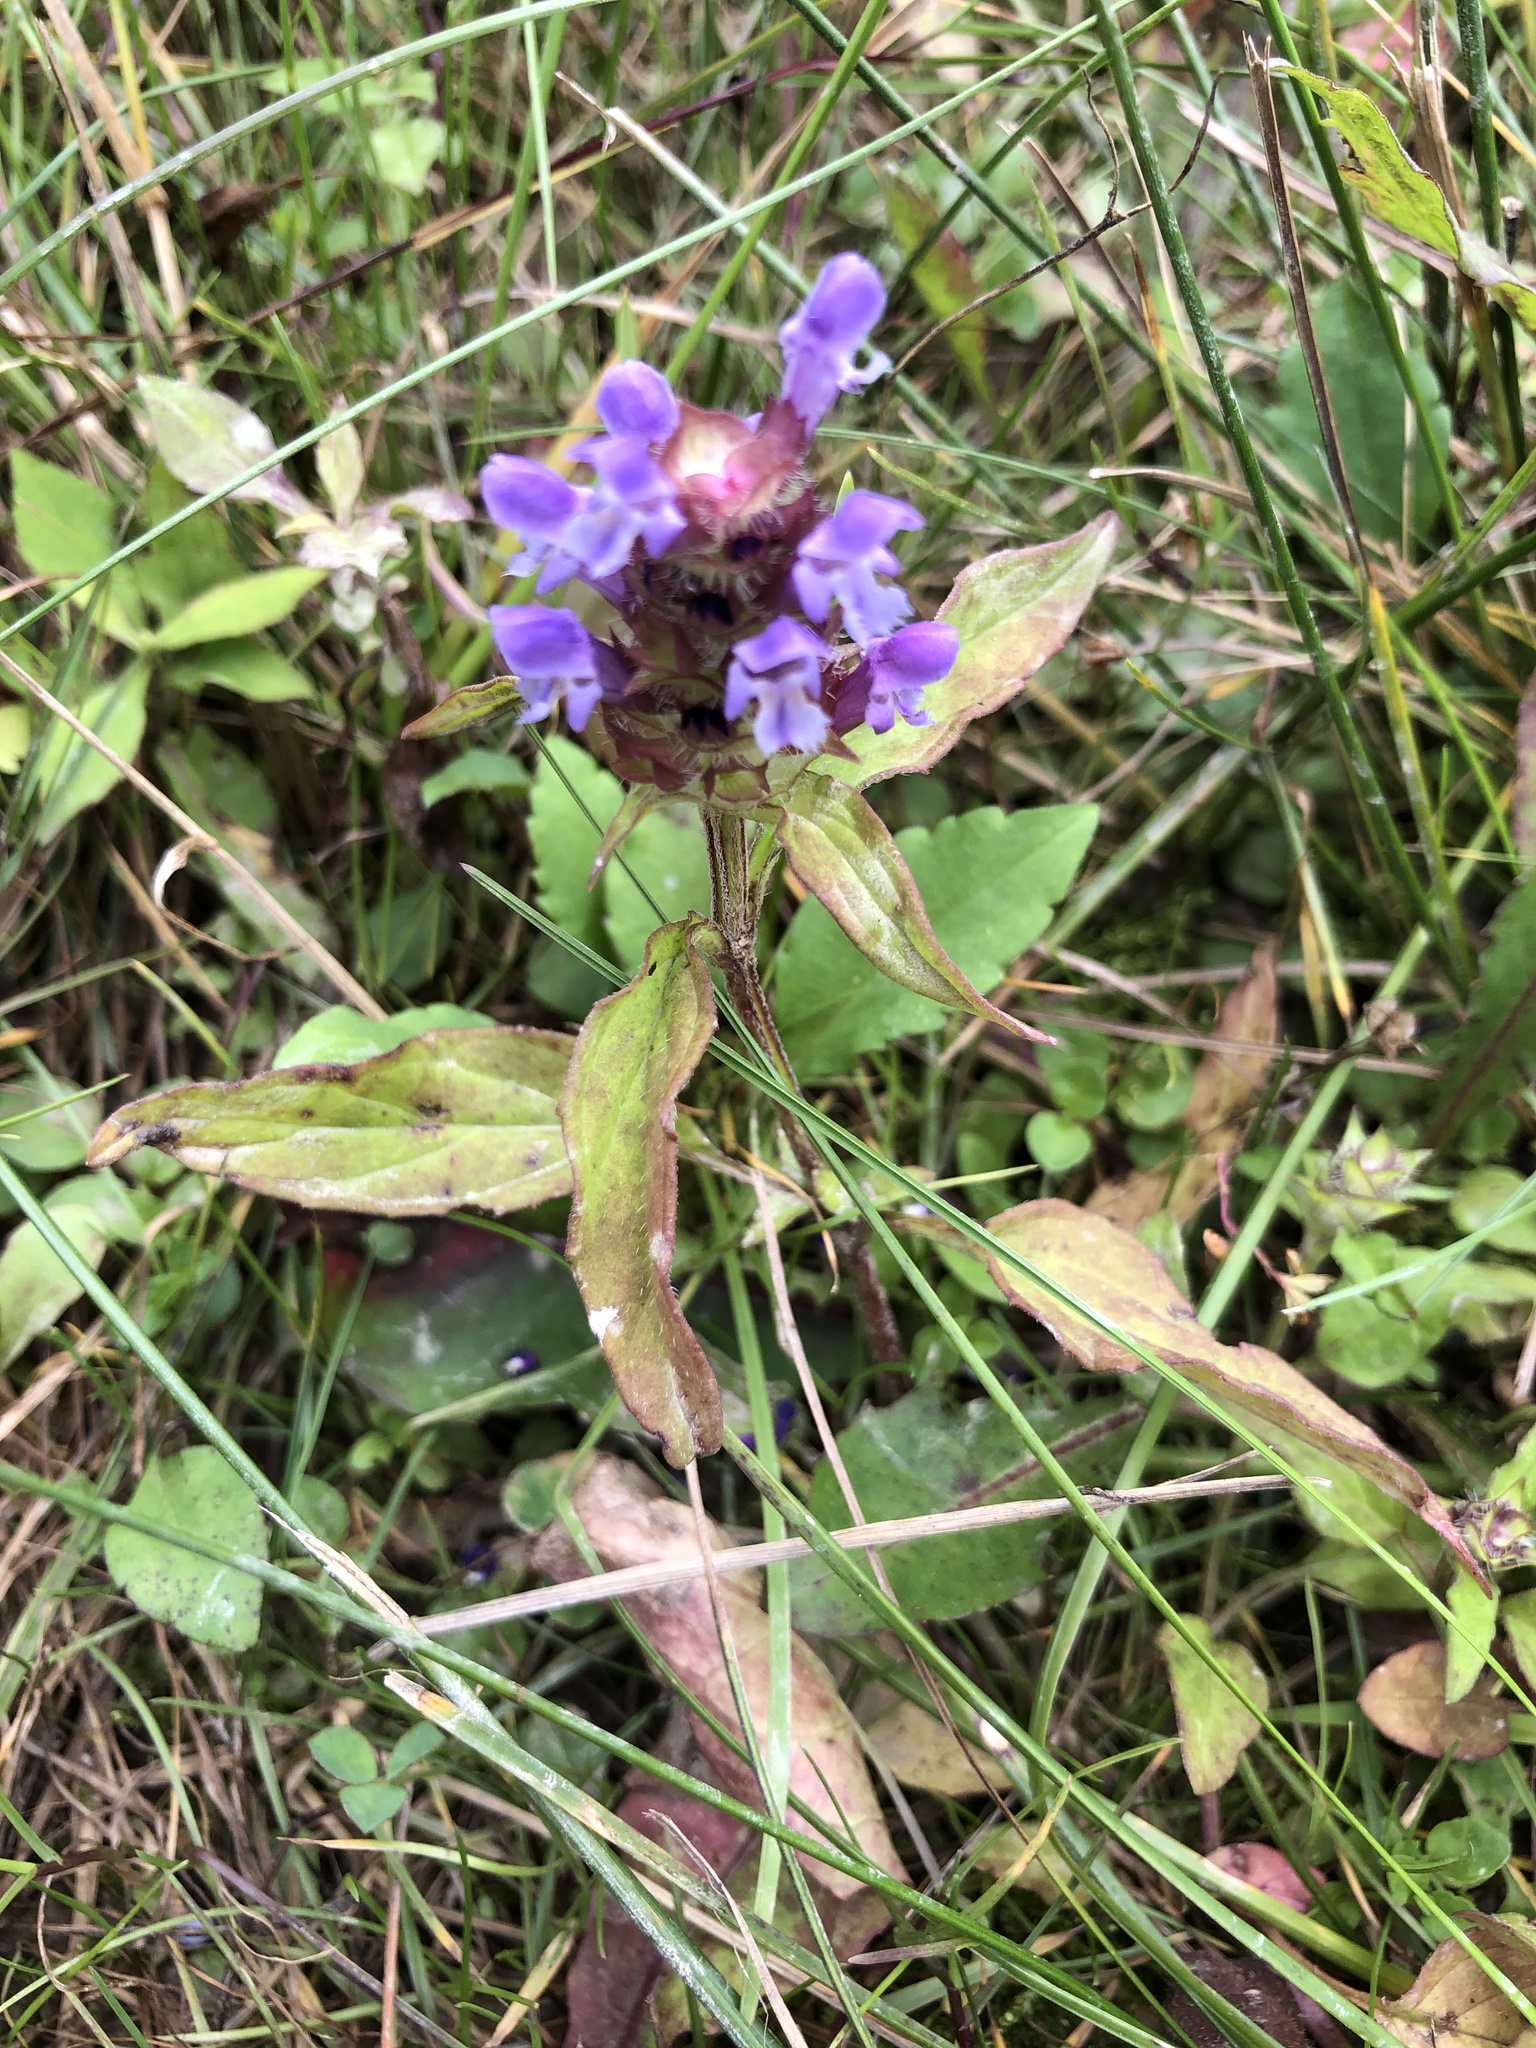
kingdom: Plantae
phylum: Tracheophyta
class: Magnoliopsida
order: Lamiales
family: Lamiaceae
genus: Prunella
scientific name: Prunella vulgaris
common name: Heal-all
